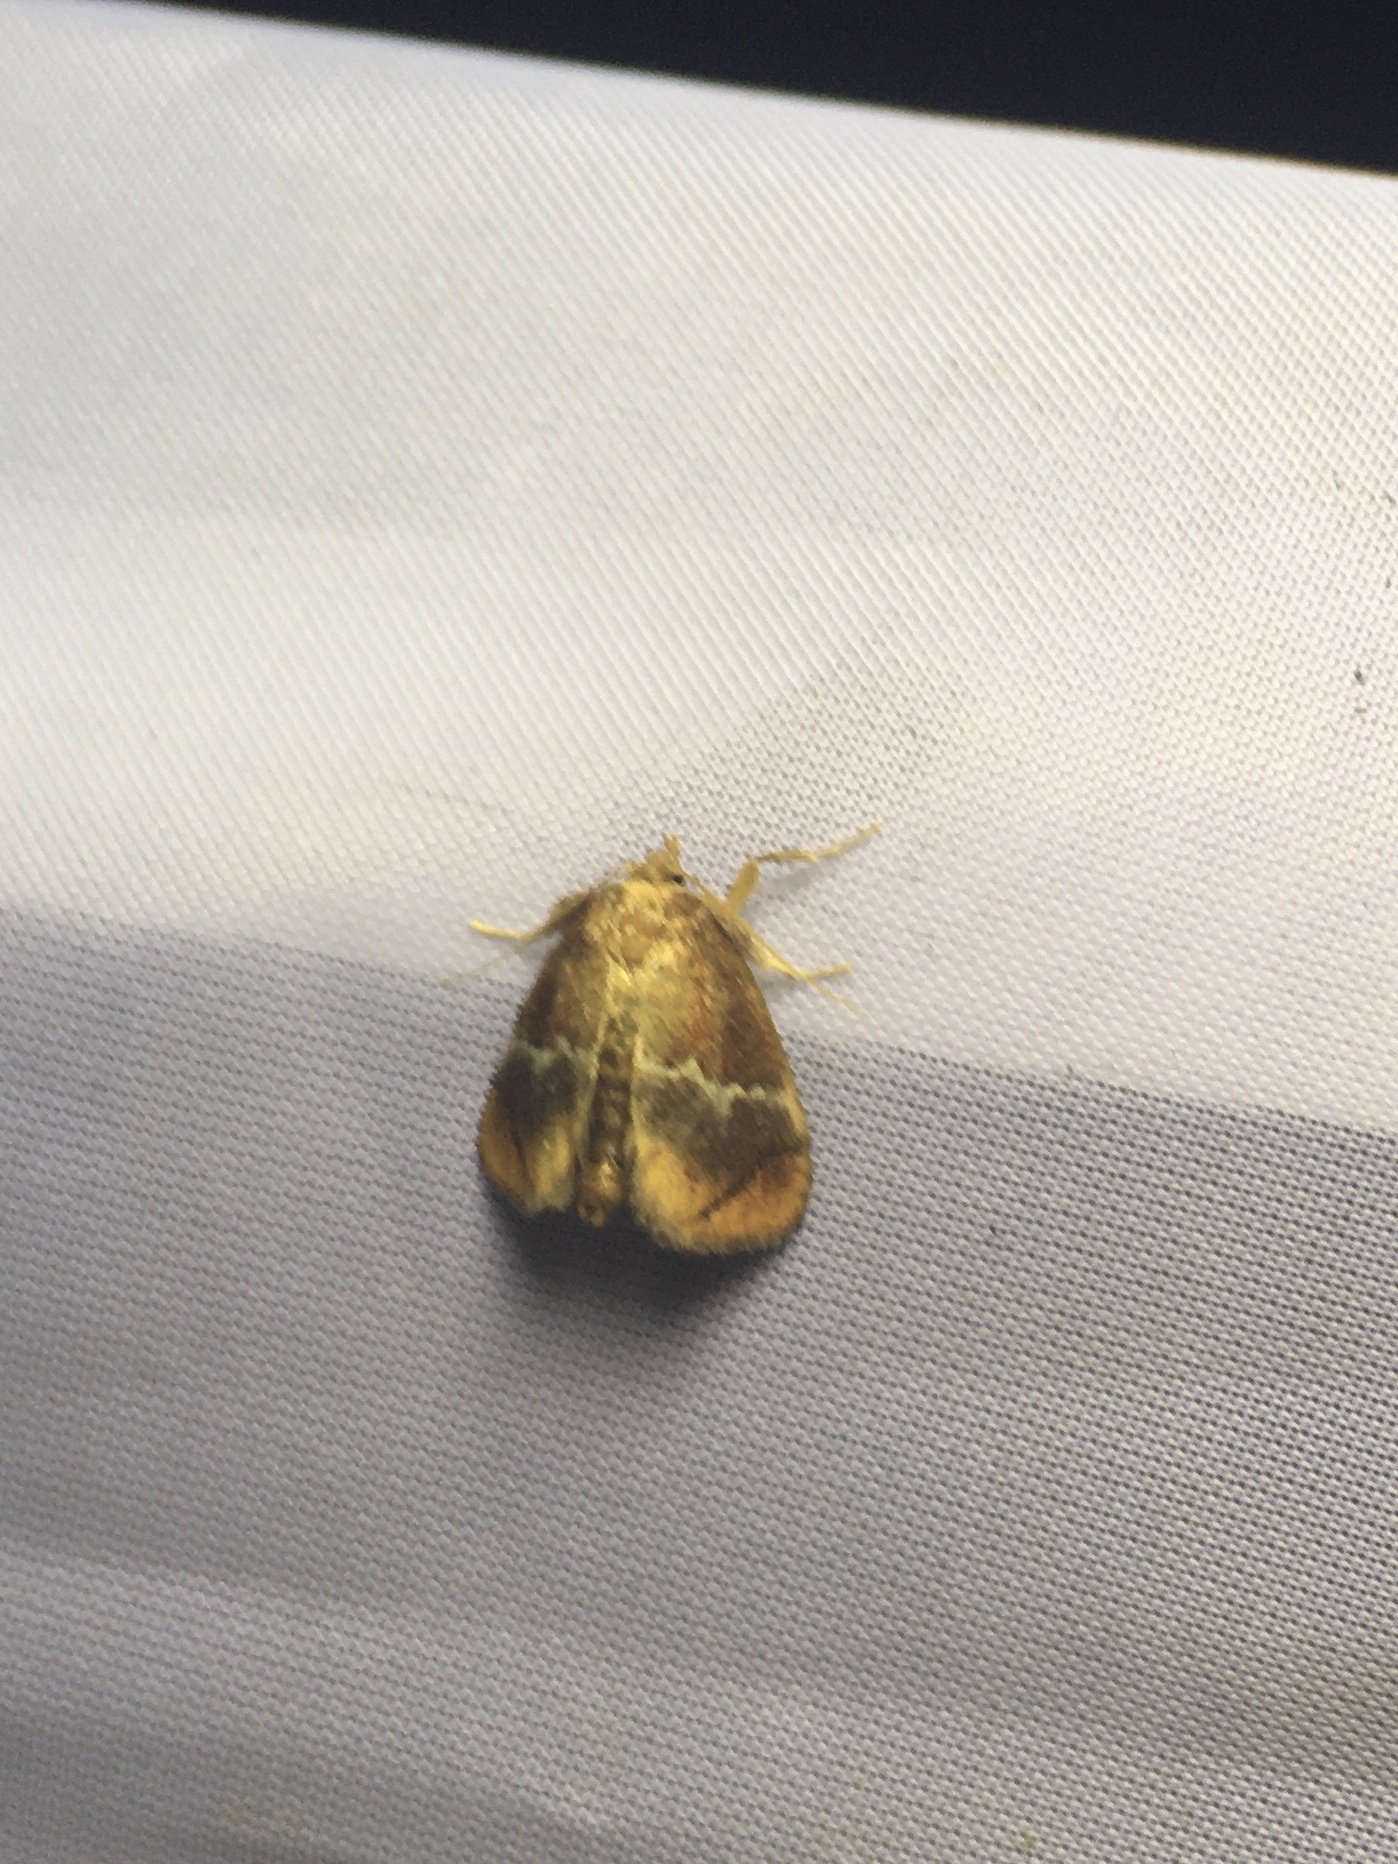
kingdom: Animalia
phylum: Arthropoda
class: Insecta
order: Lepidoptera
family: Limacodidae
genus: Lithacodes
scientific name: Lithacodes fasciola
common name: Yellow-shouldered slug moth
